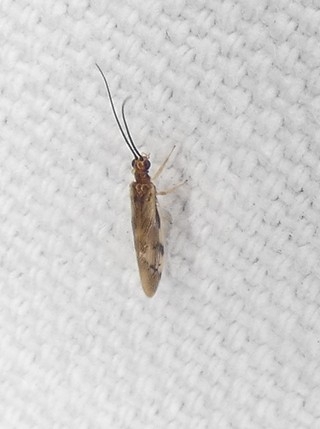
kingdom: Animalia
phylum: Arthropoda
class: Insecta
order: Neuroptera
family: Sisyridae
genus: Climacia
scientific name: Climacia areolaris
